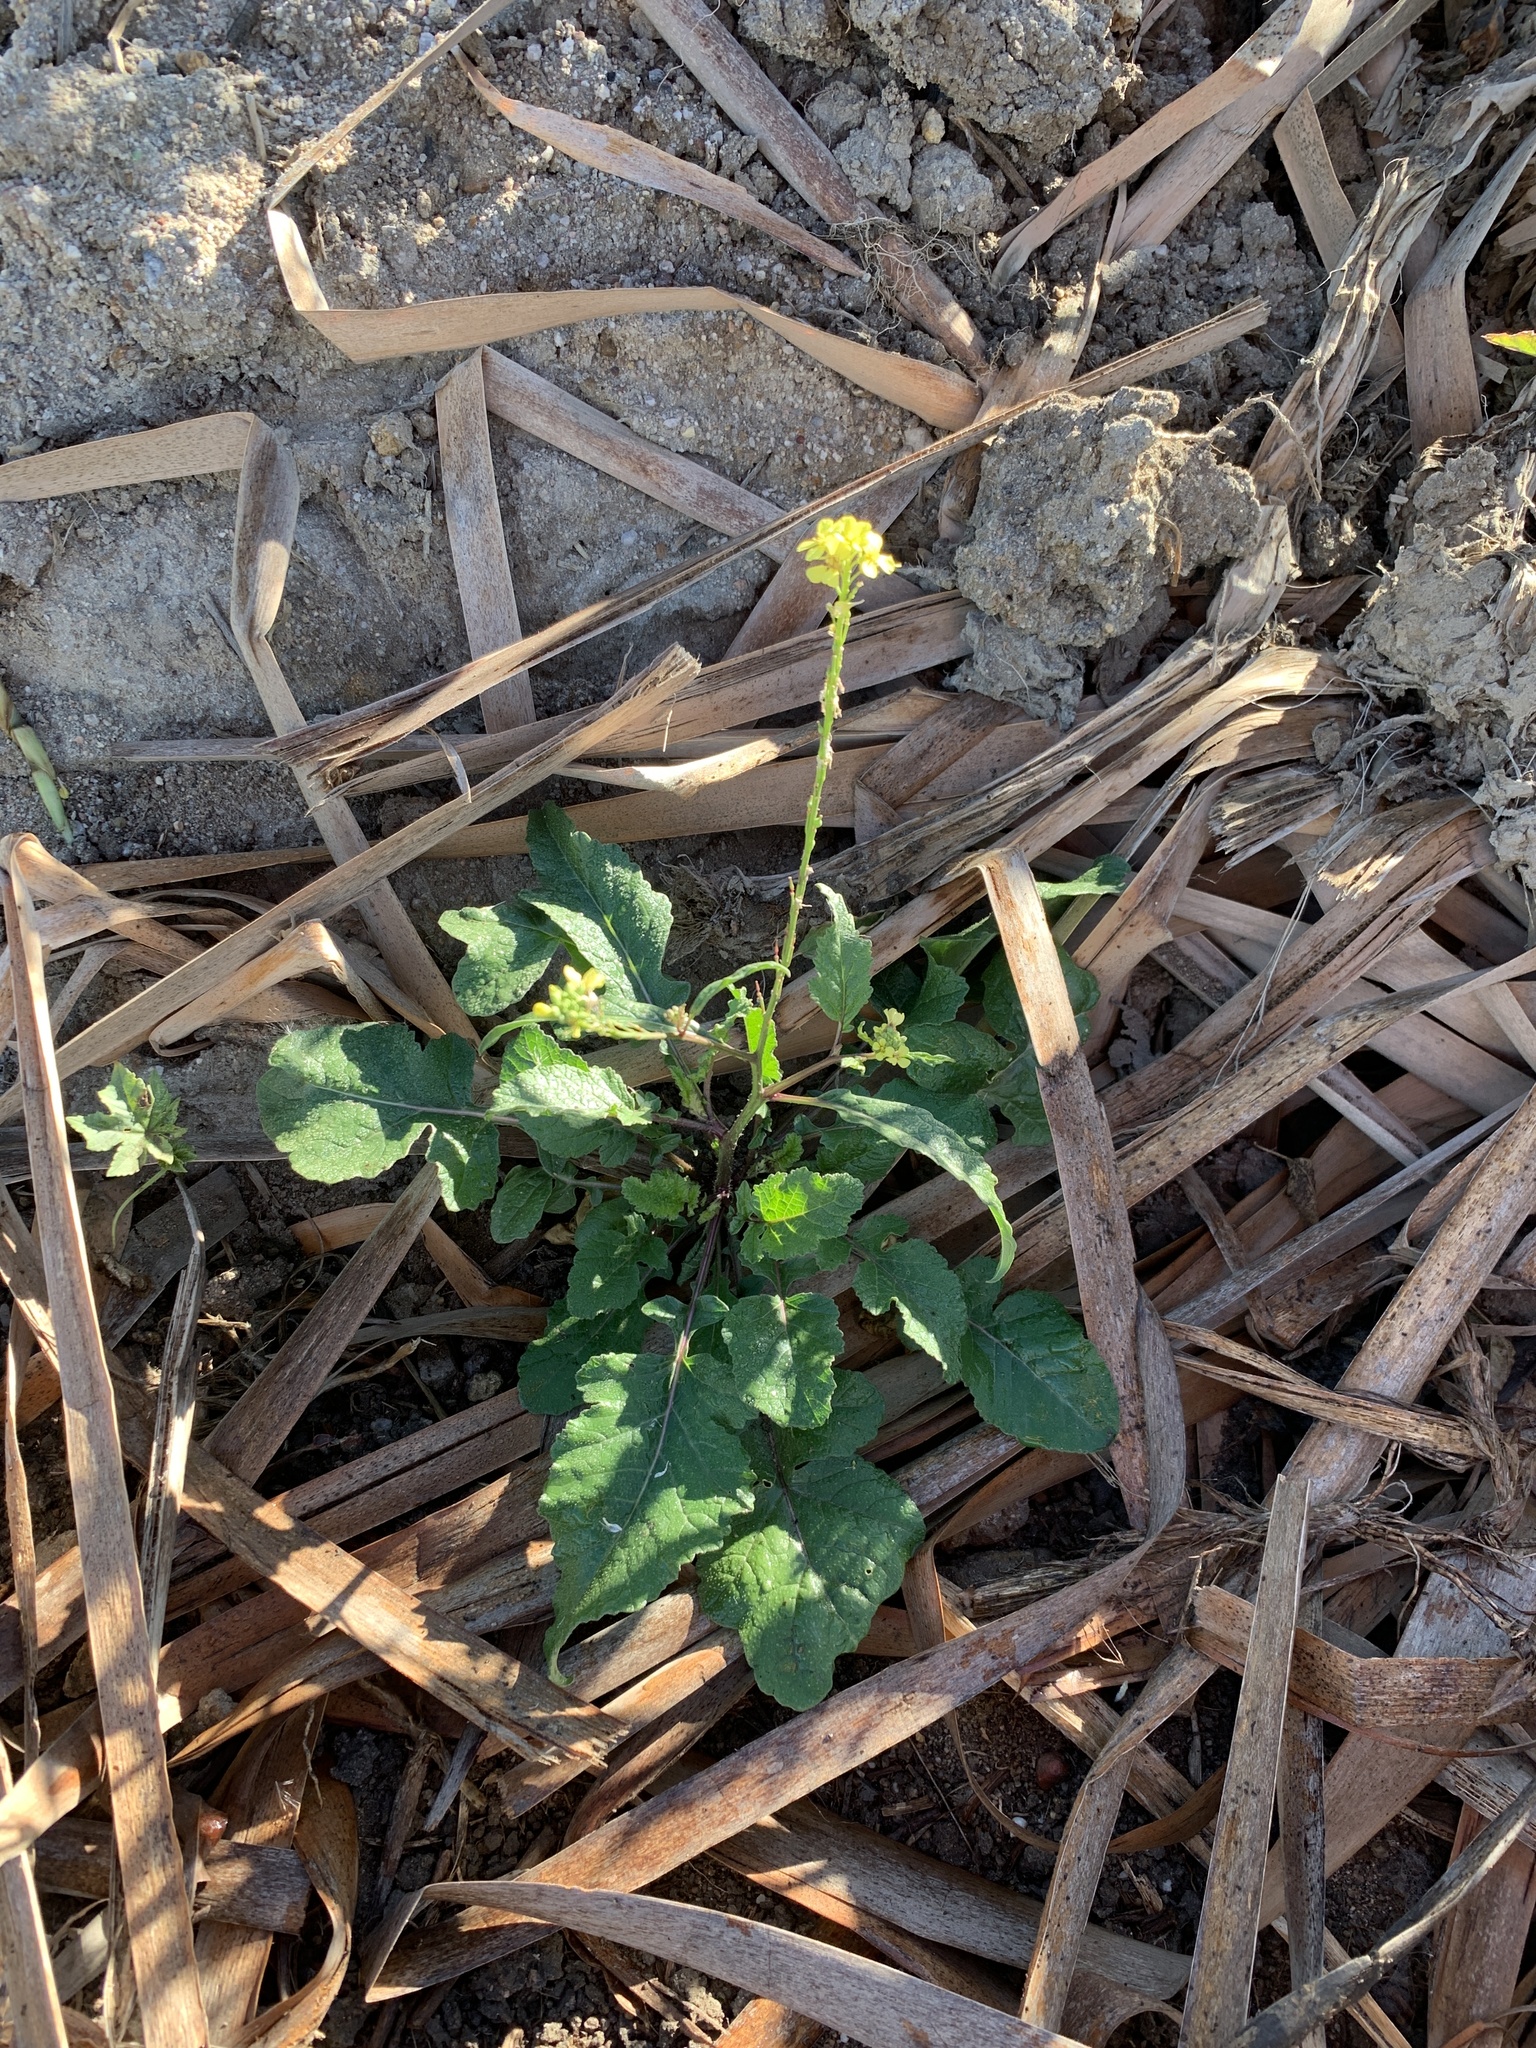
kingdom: Plantae
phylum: Tracheophyta
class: Magnoliopsida
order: Brassicales
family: Brassicaceae
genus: Rapistrum
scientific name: Rapistrum rugosum
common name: Annual bastardcabbage
